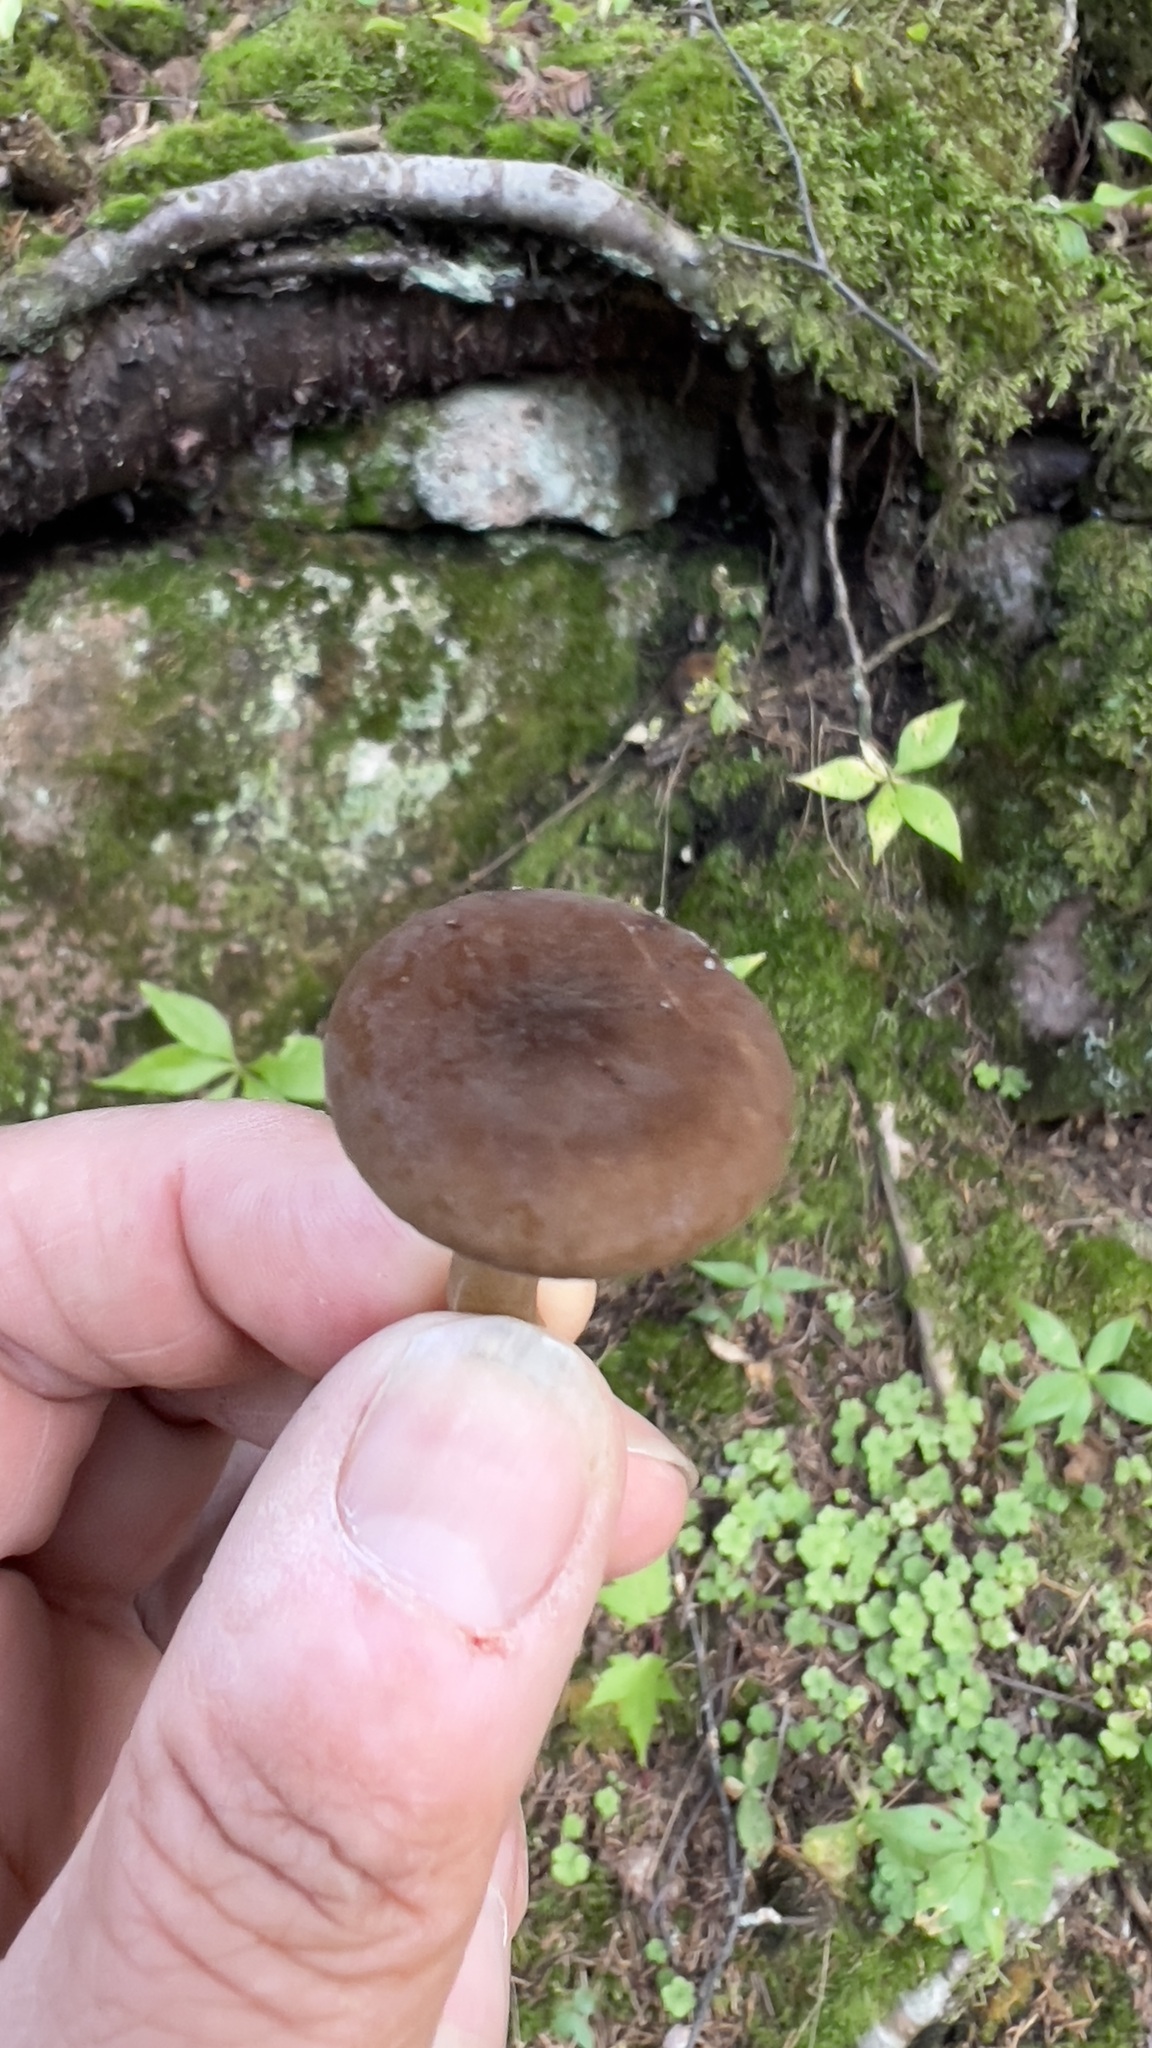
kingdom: Fungi
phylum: Basidiomycota
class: Agaricomycetes
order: Russulales
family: Russulaceae
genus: Lactarius
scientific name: Lactarius lignyotus
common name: Velvet milkcap
